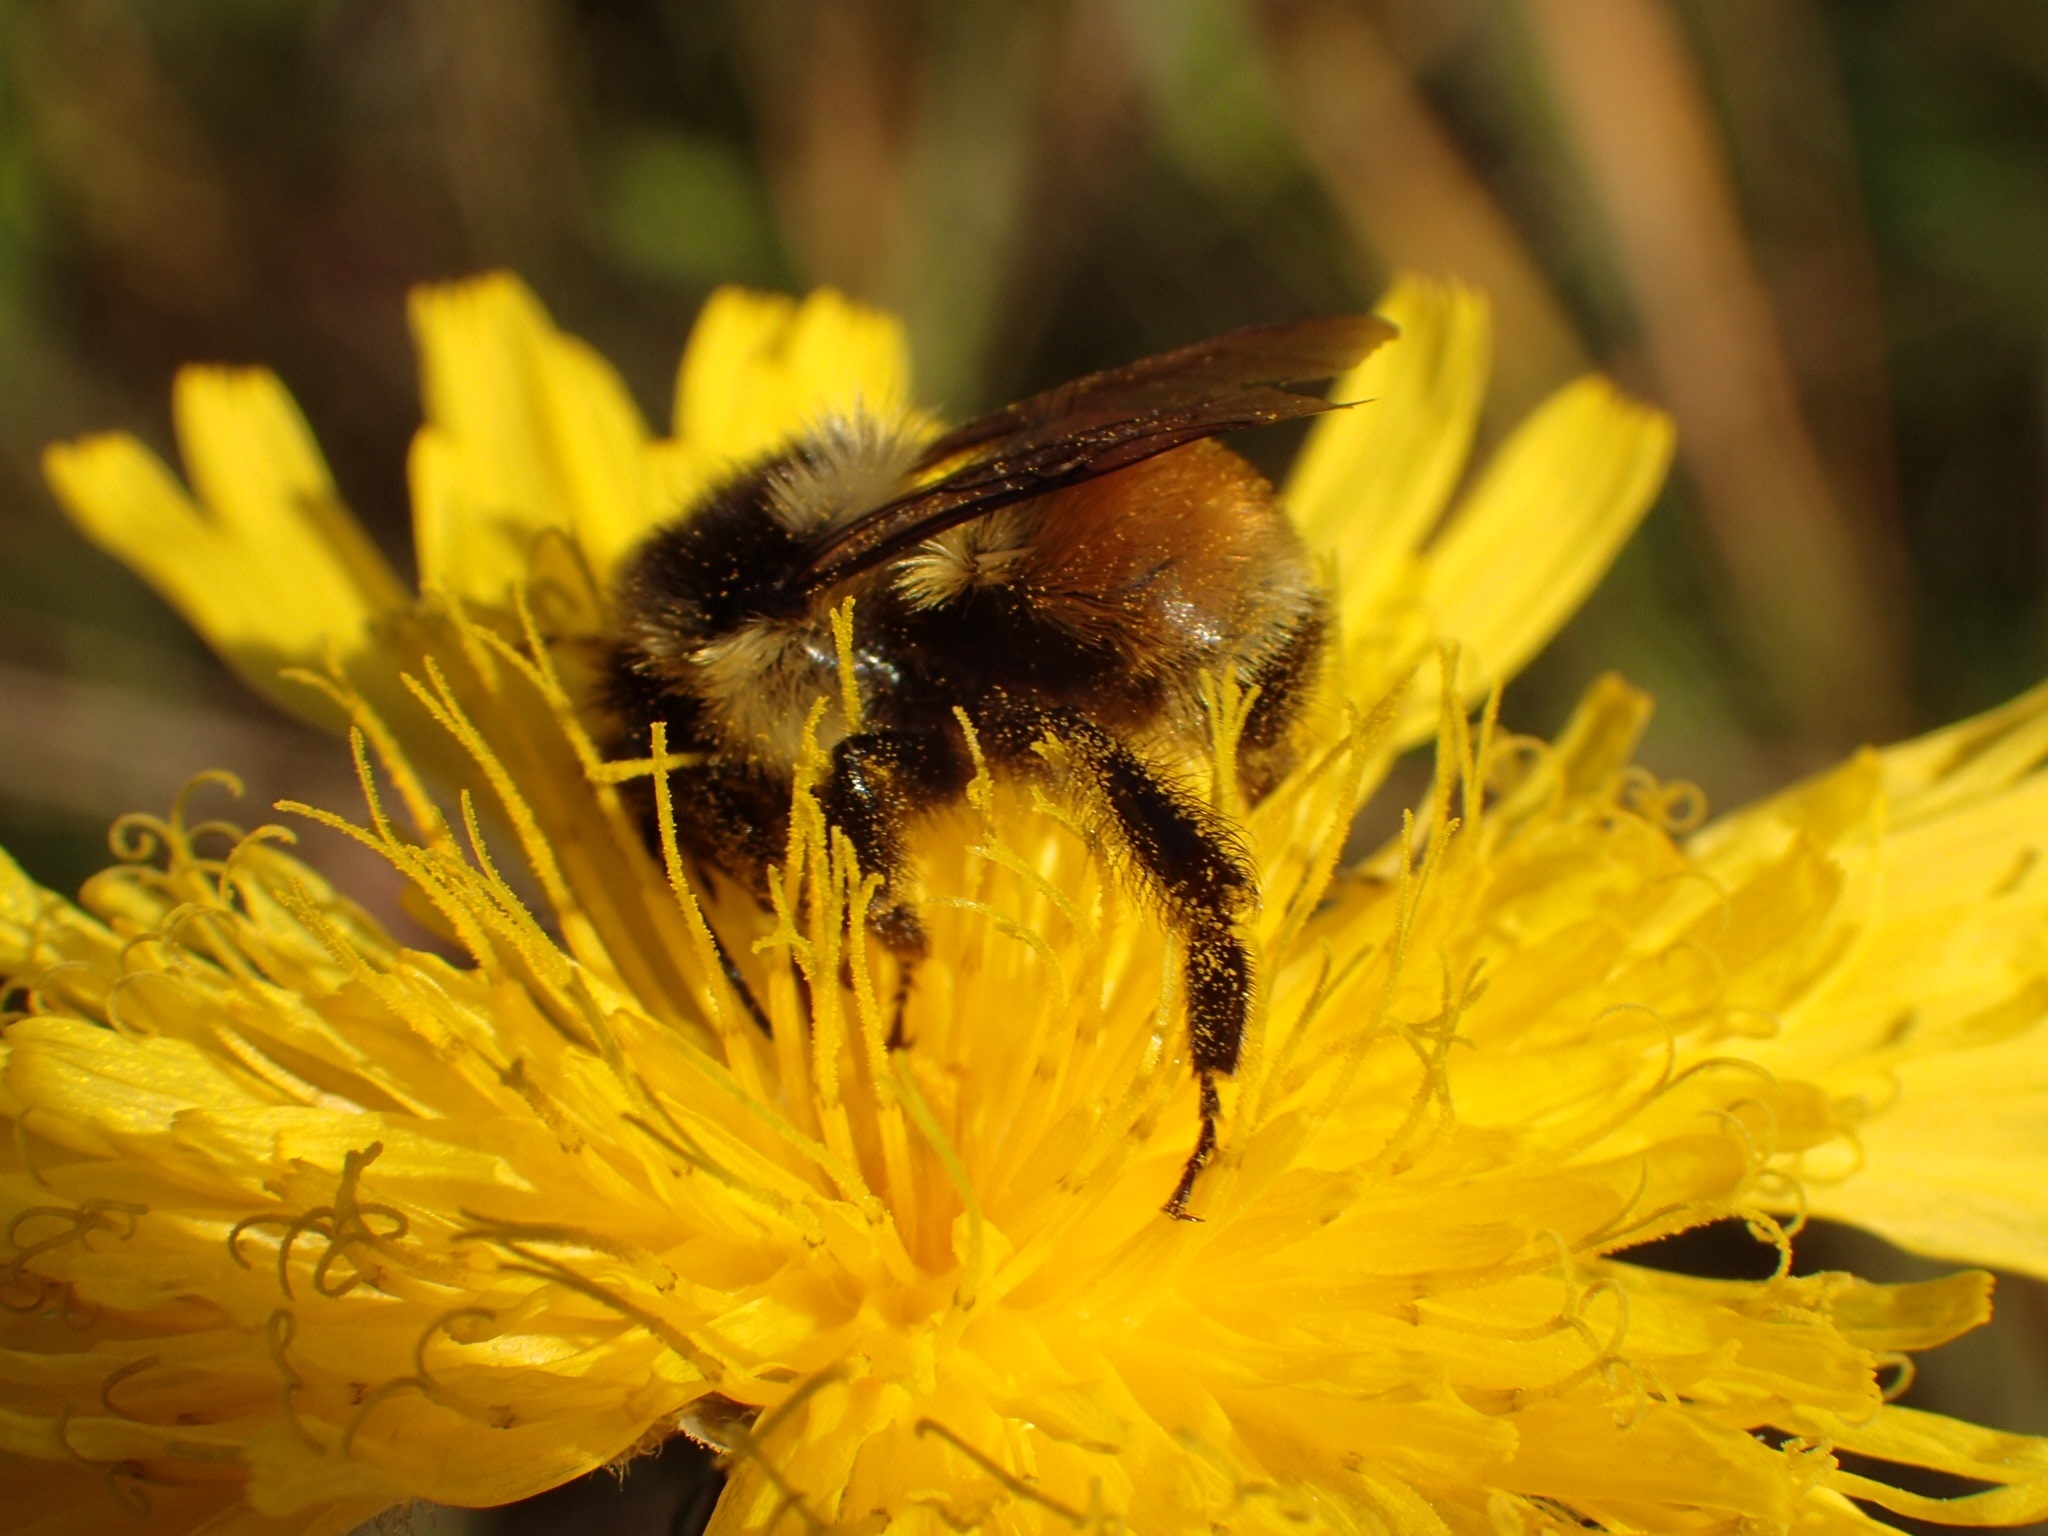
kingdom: Animalia
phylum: Arthropoda
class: Insecta
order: Hymenoptera
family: Apidae
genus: Bombus
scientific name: Bombus ternarius
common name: Tri-colored bumble bee
